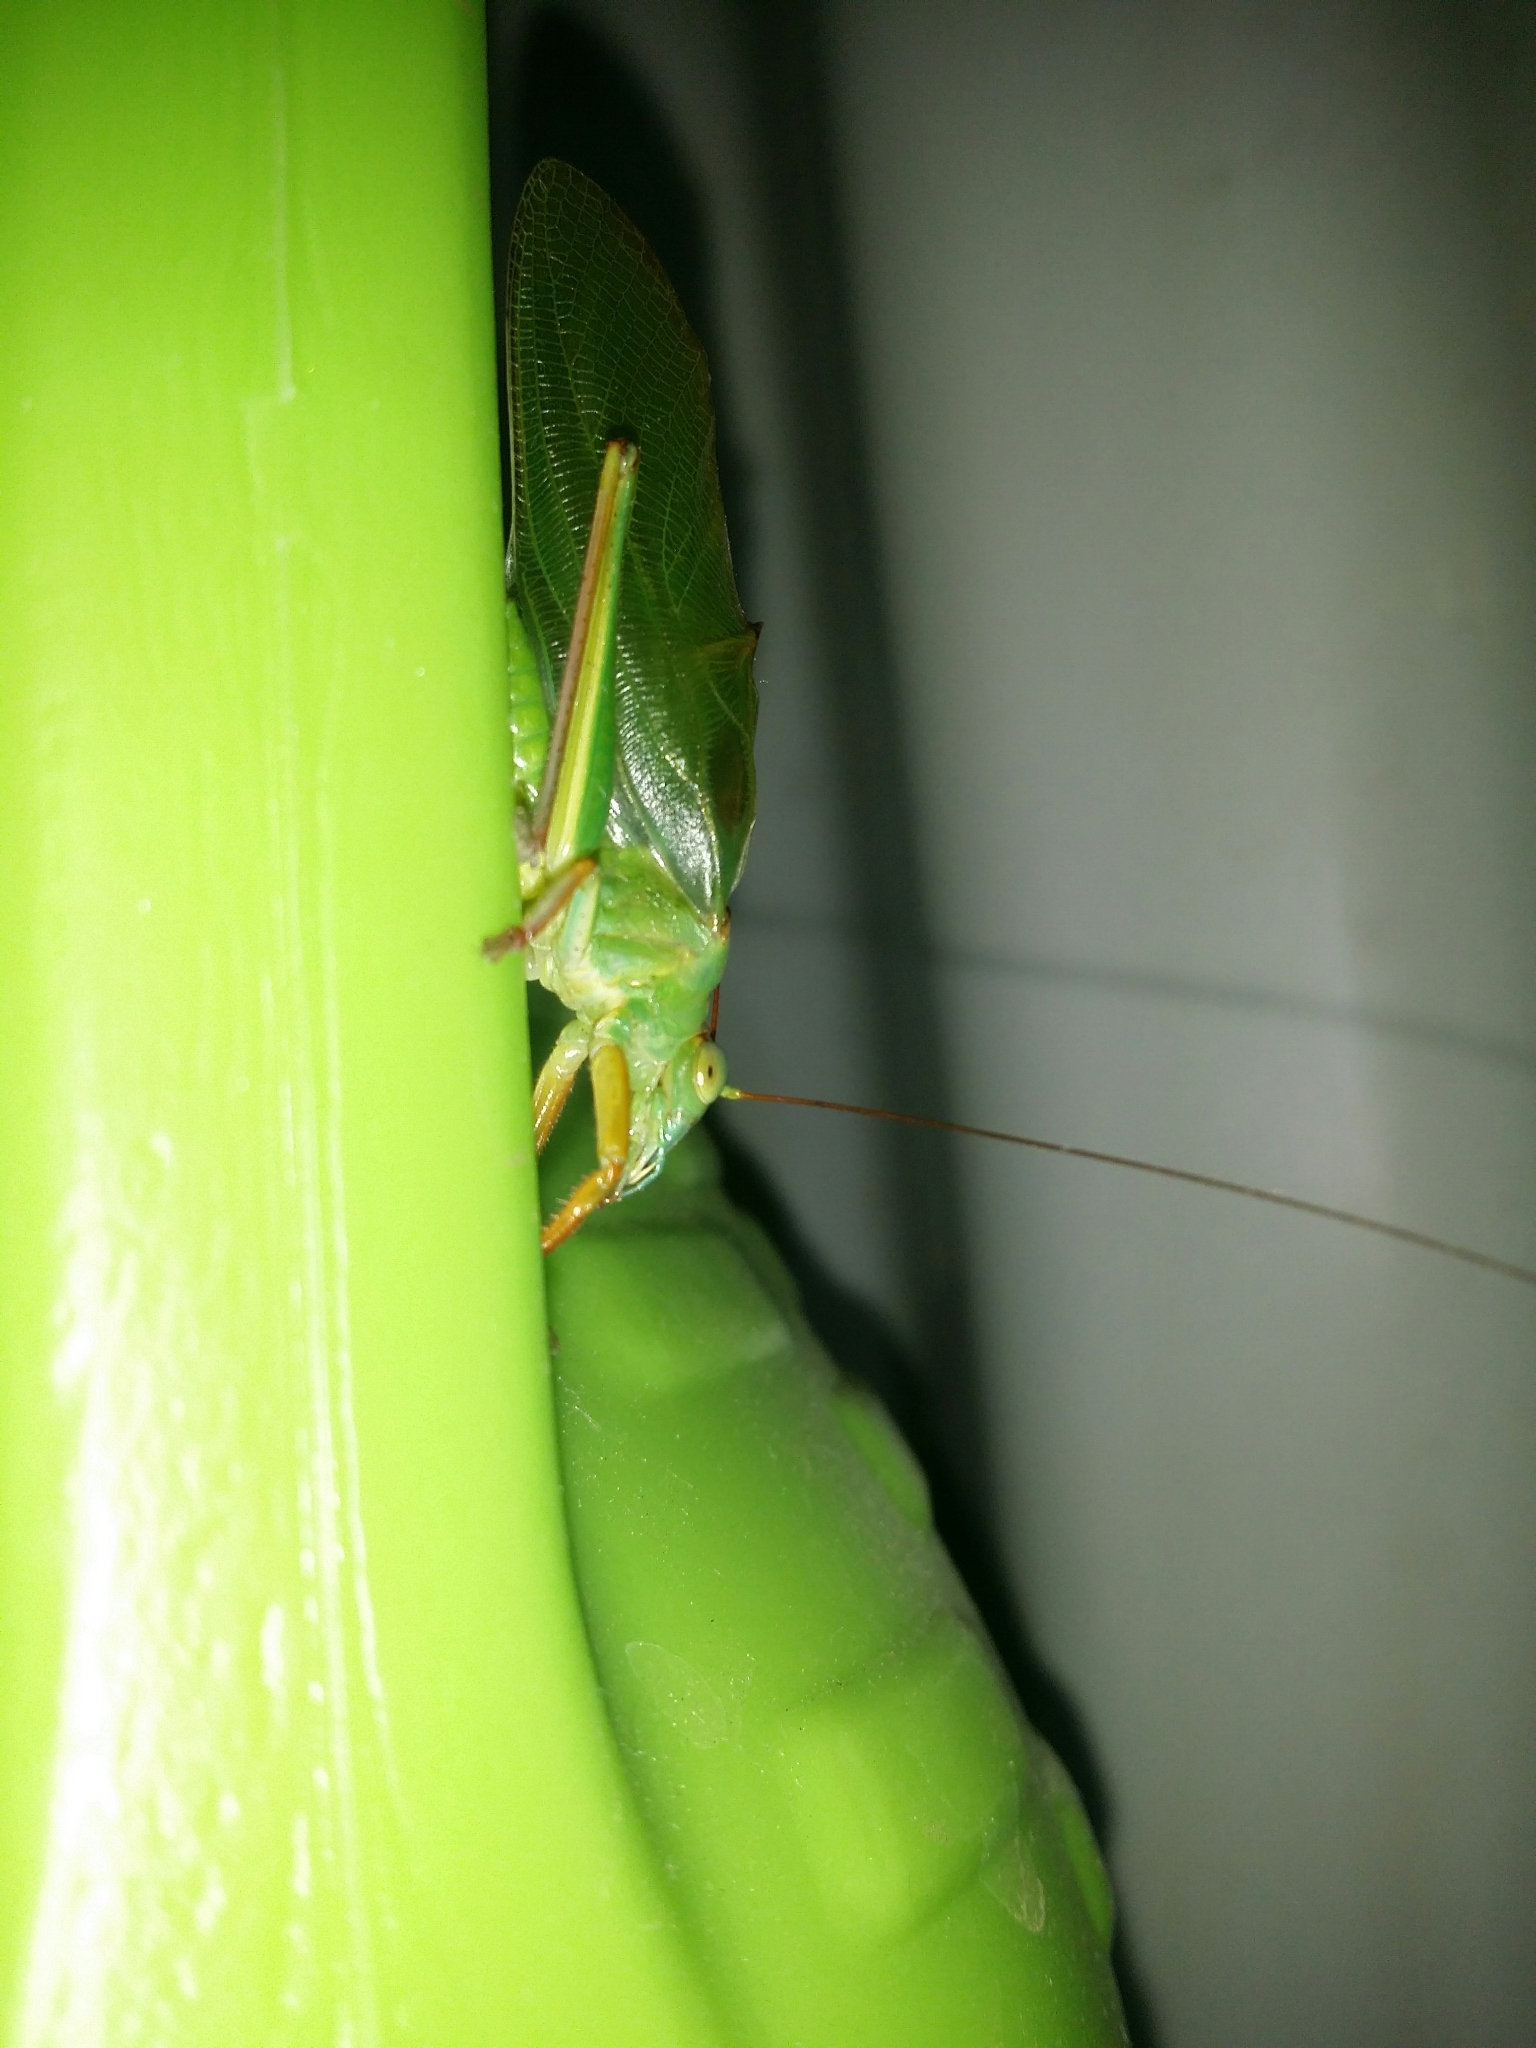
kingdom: Animalia
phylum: Arthropoda
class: Insecta
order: Orthoptera
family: Tettigoniidae
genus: Tympanophora
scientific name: Tympanophora andreae
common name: Andrea's balloon-winged katydid
